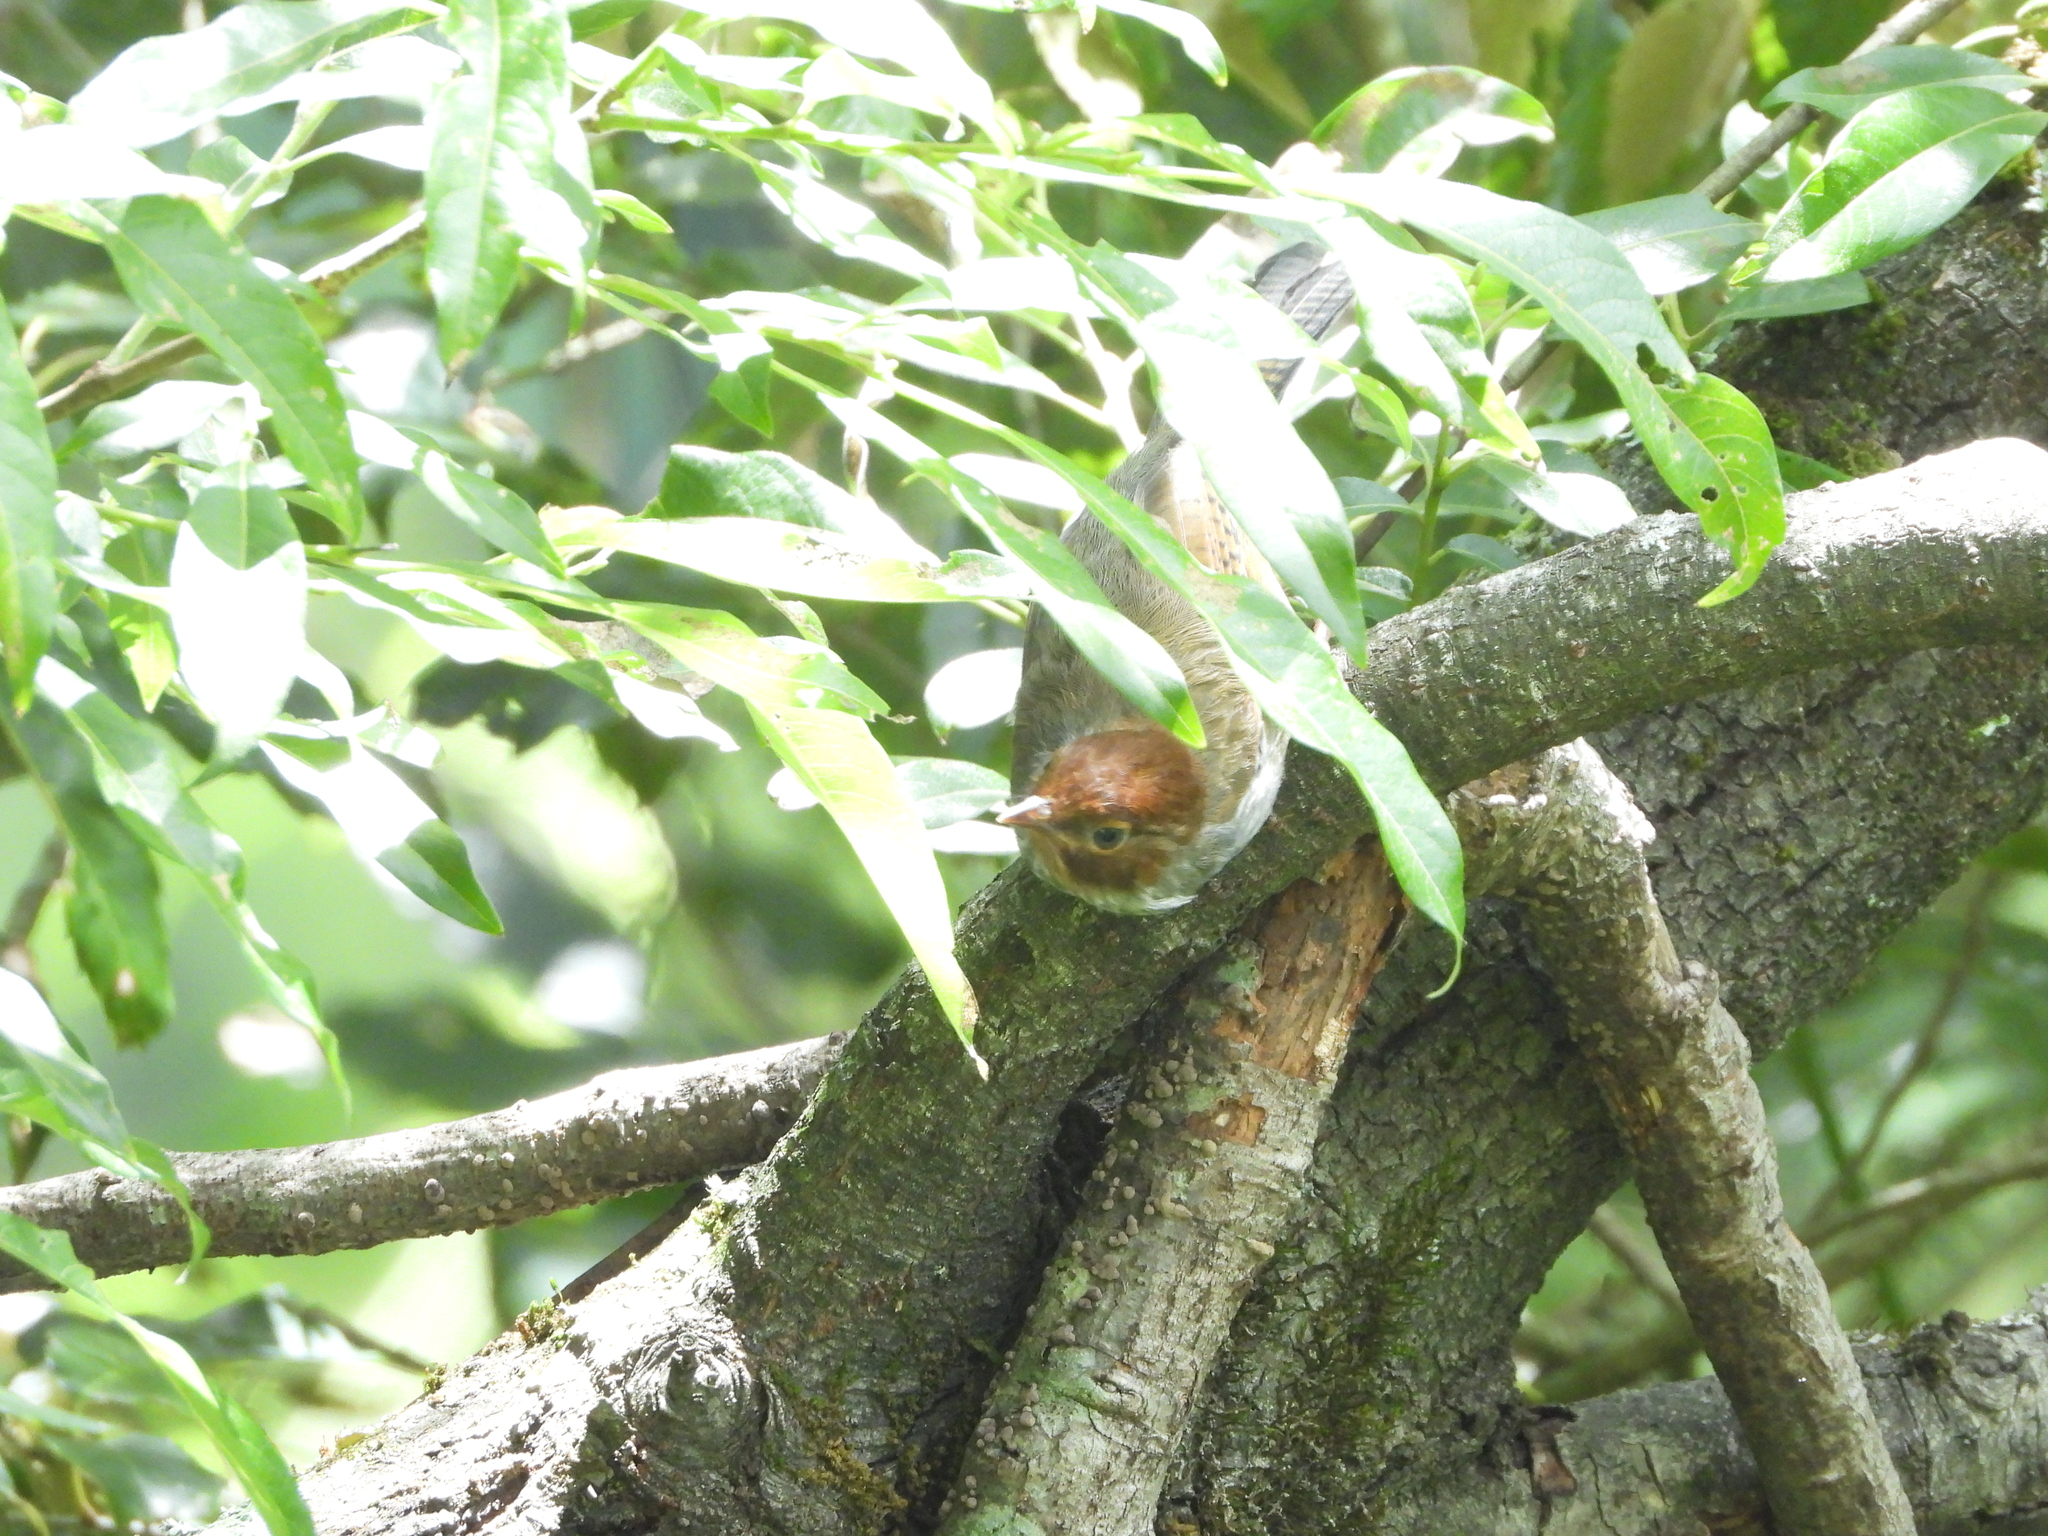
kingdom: Animalia
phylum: Chordata
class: Aves
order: Passeriformes
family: Leiothrichidae
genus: Actinodura
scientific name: Actinodura morrisoniana
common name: Taiwan barwing
